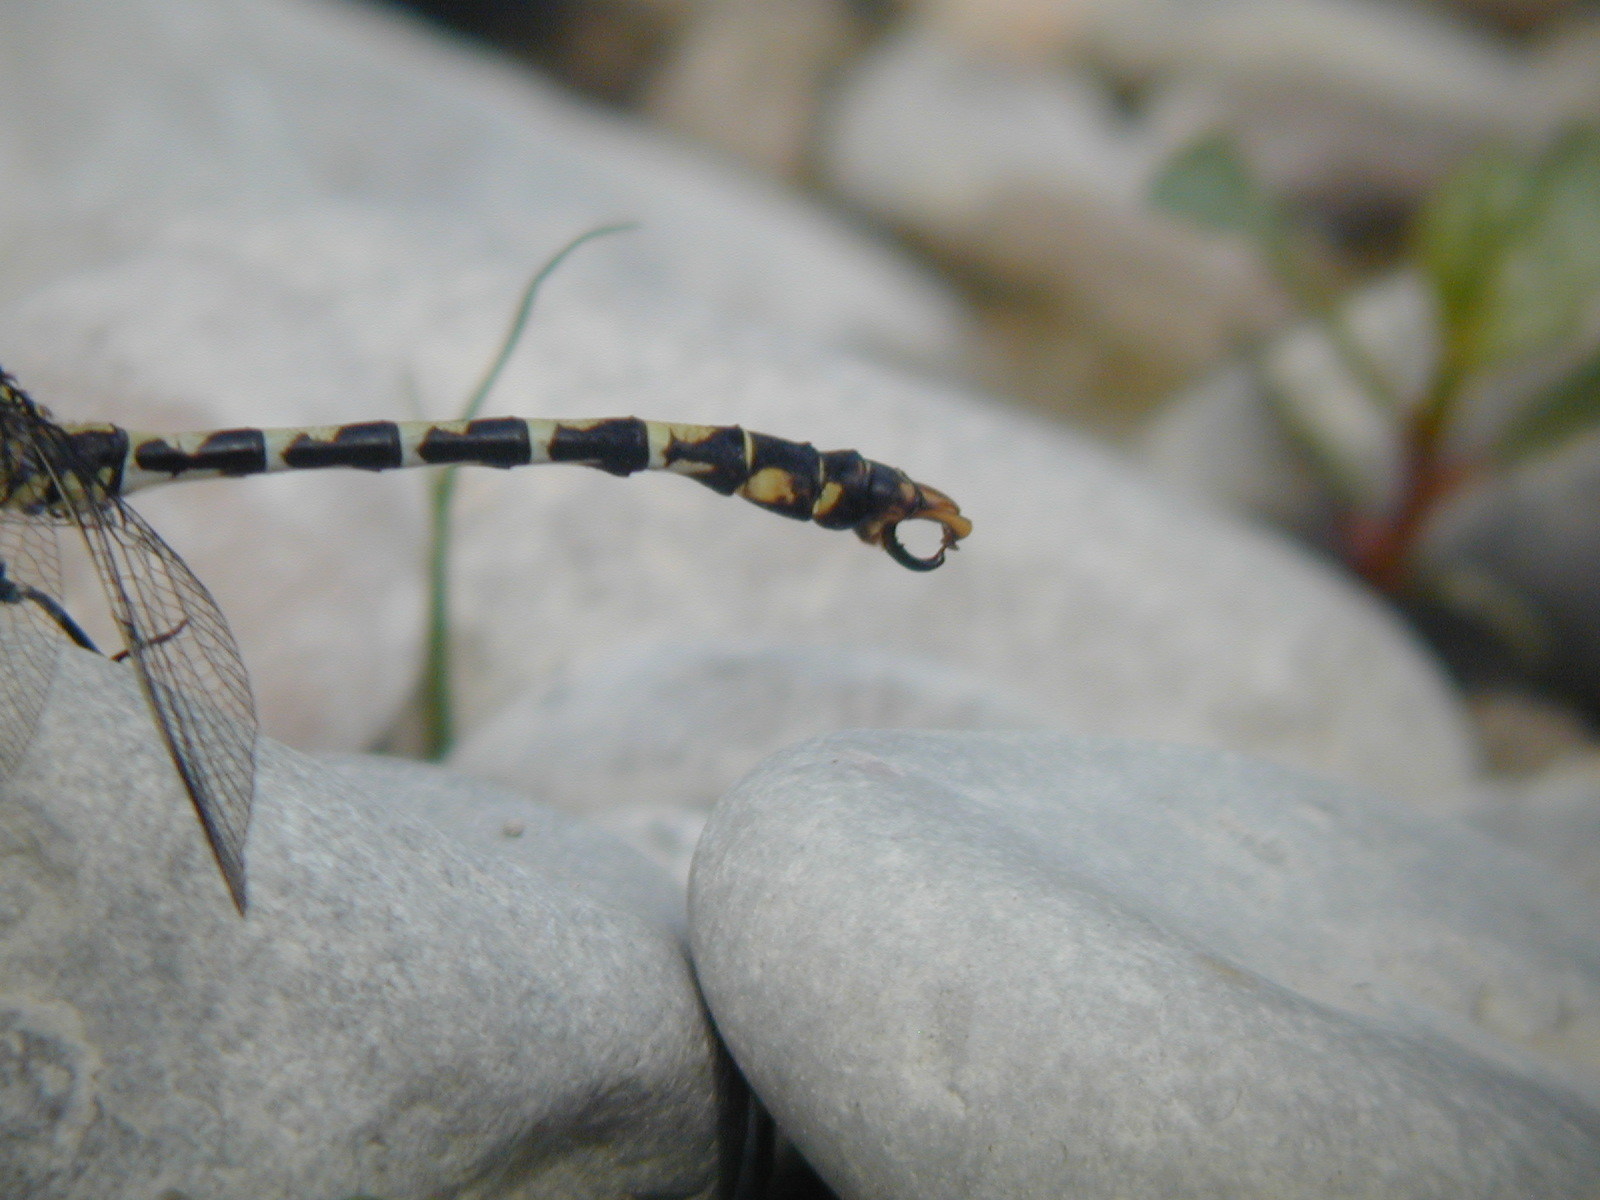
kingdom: Animalia
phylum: Arthropoda
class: Insecta
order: Odonata
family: Gomphidae
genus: Onychogomphus
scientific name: Onychogomphus forcipatus
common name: Small pincertail
